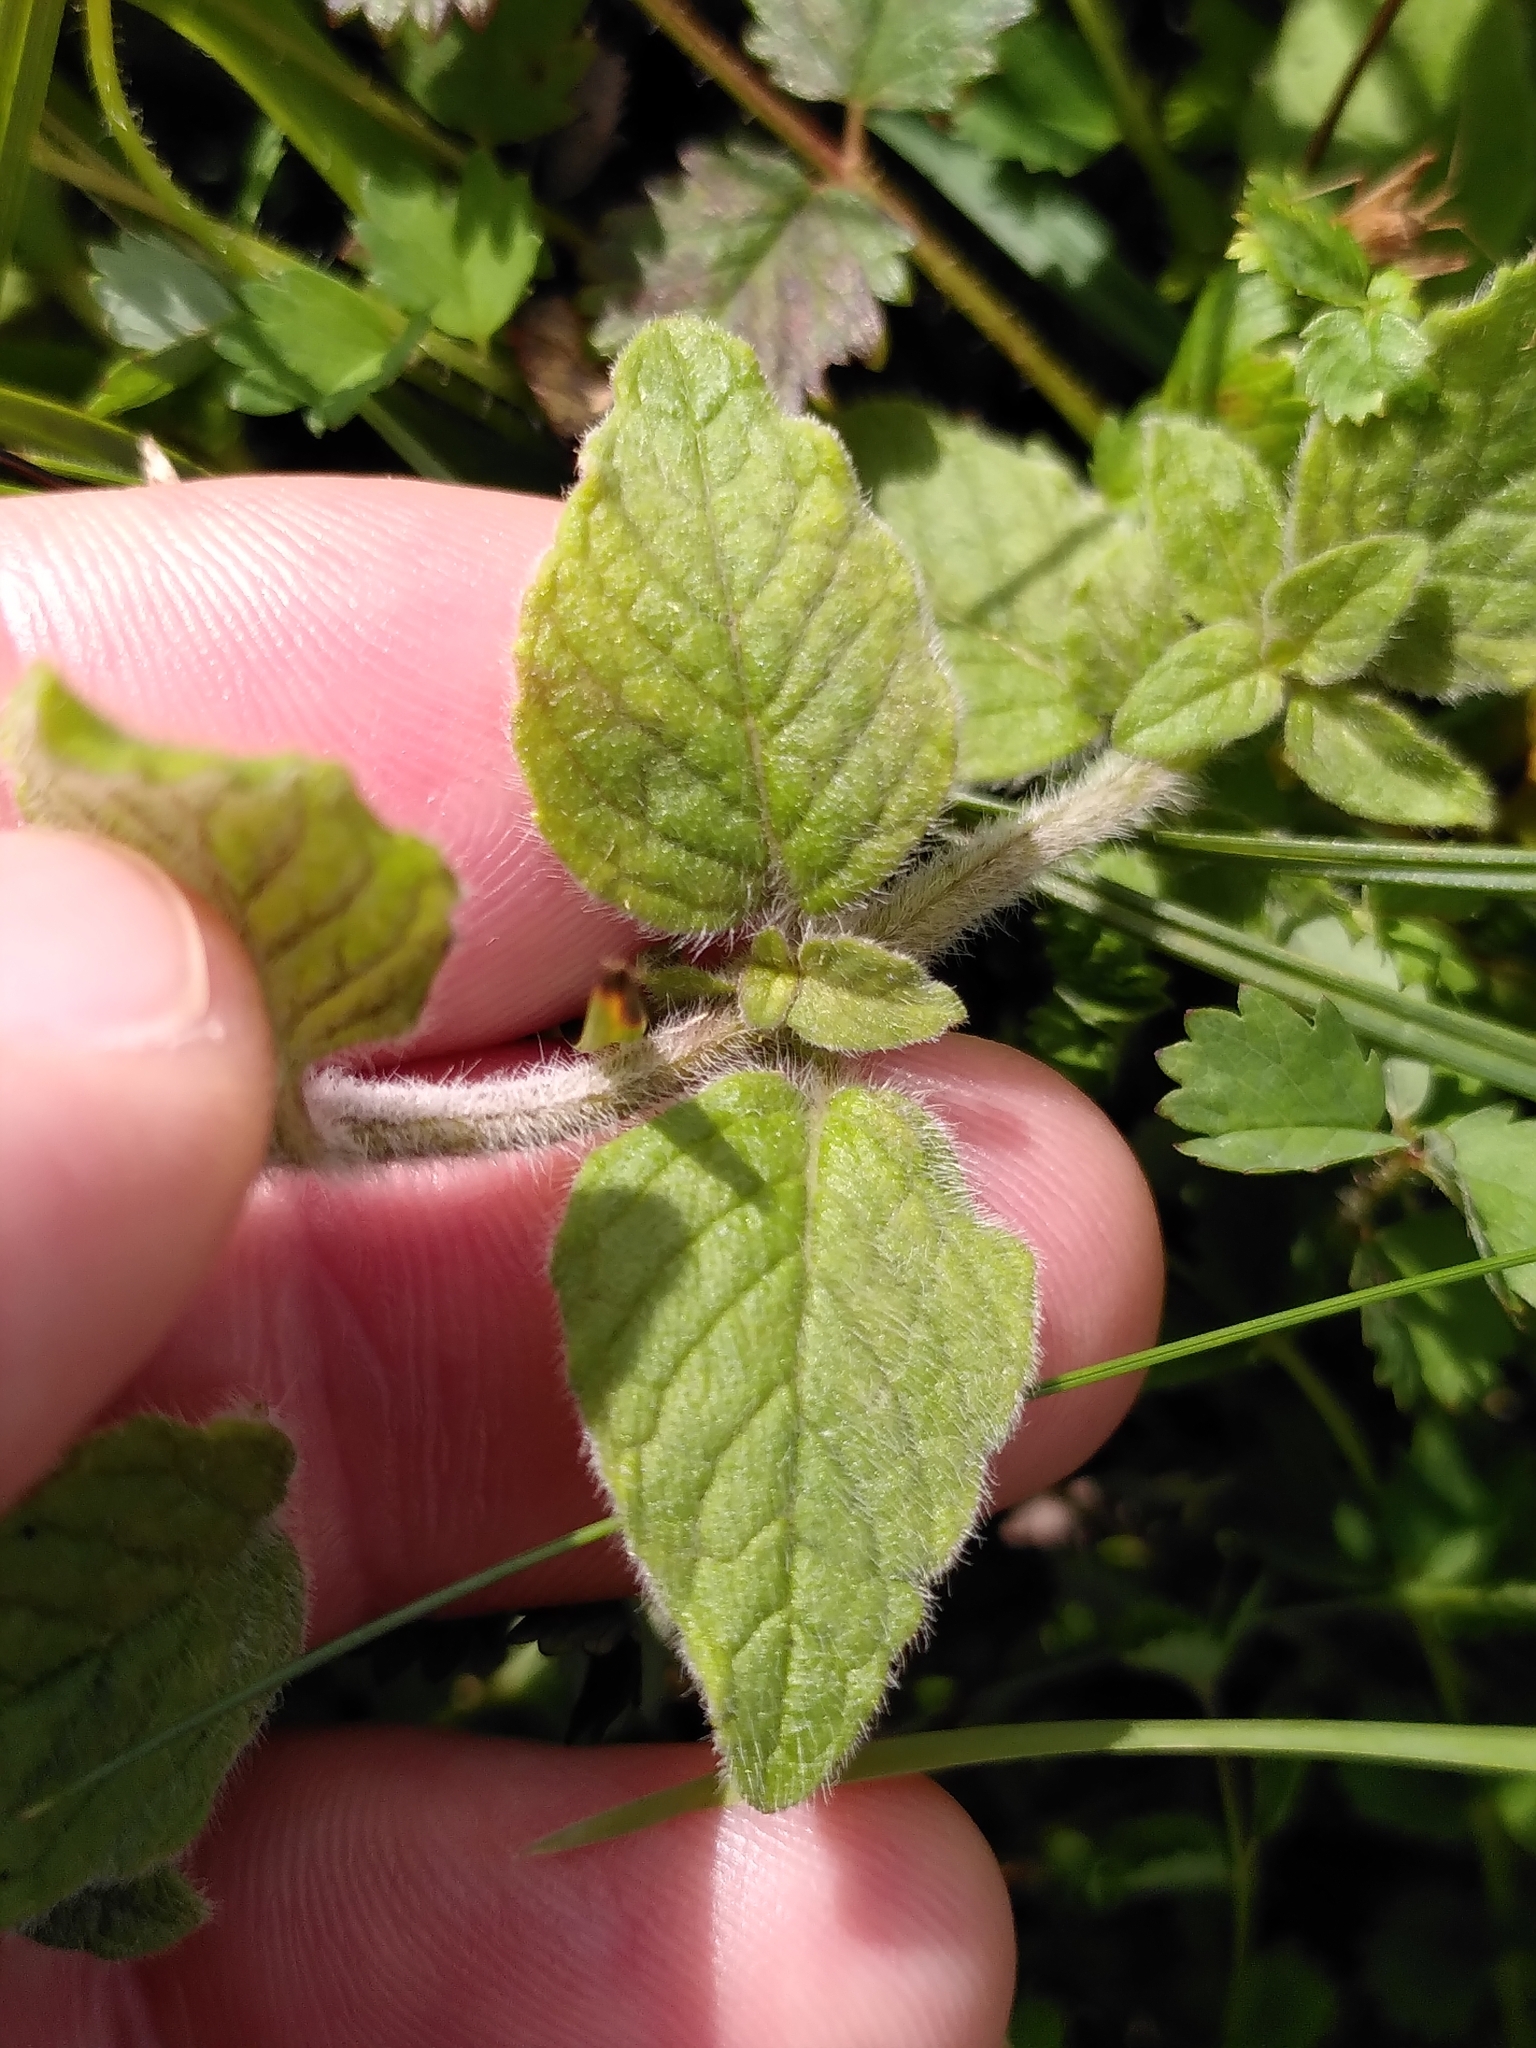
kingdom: Plantae
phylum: Tracheophyta
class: Magnoliopsida
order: Lamiales
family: Lamiaceae
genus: Clinopodium
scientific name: Clinopodium vulgare
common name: Wild basil
